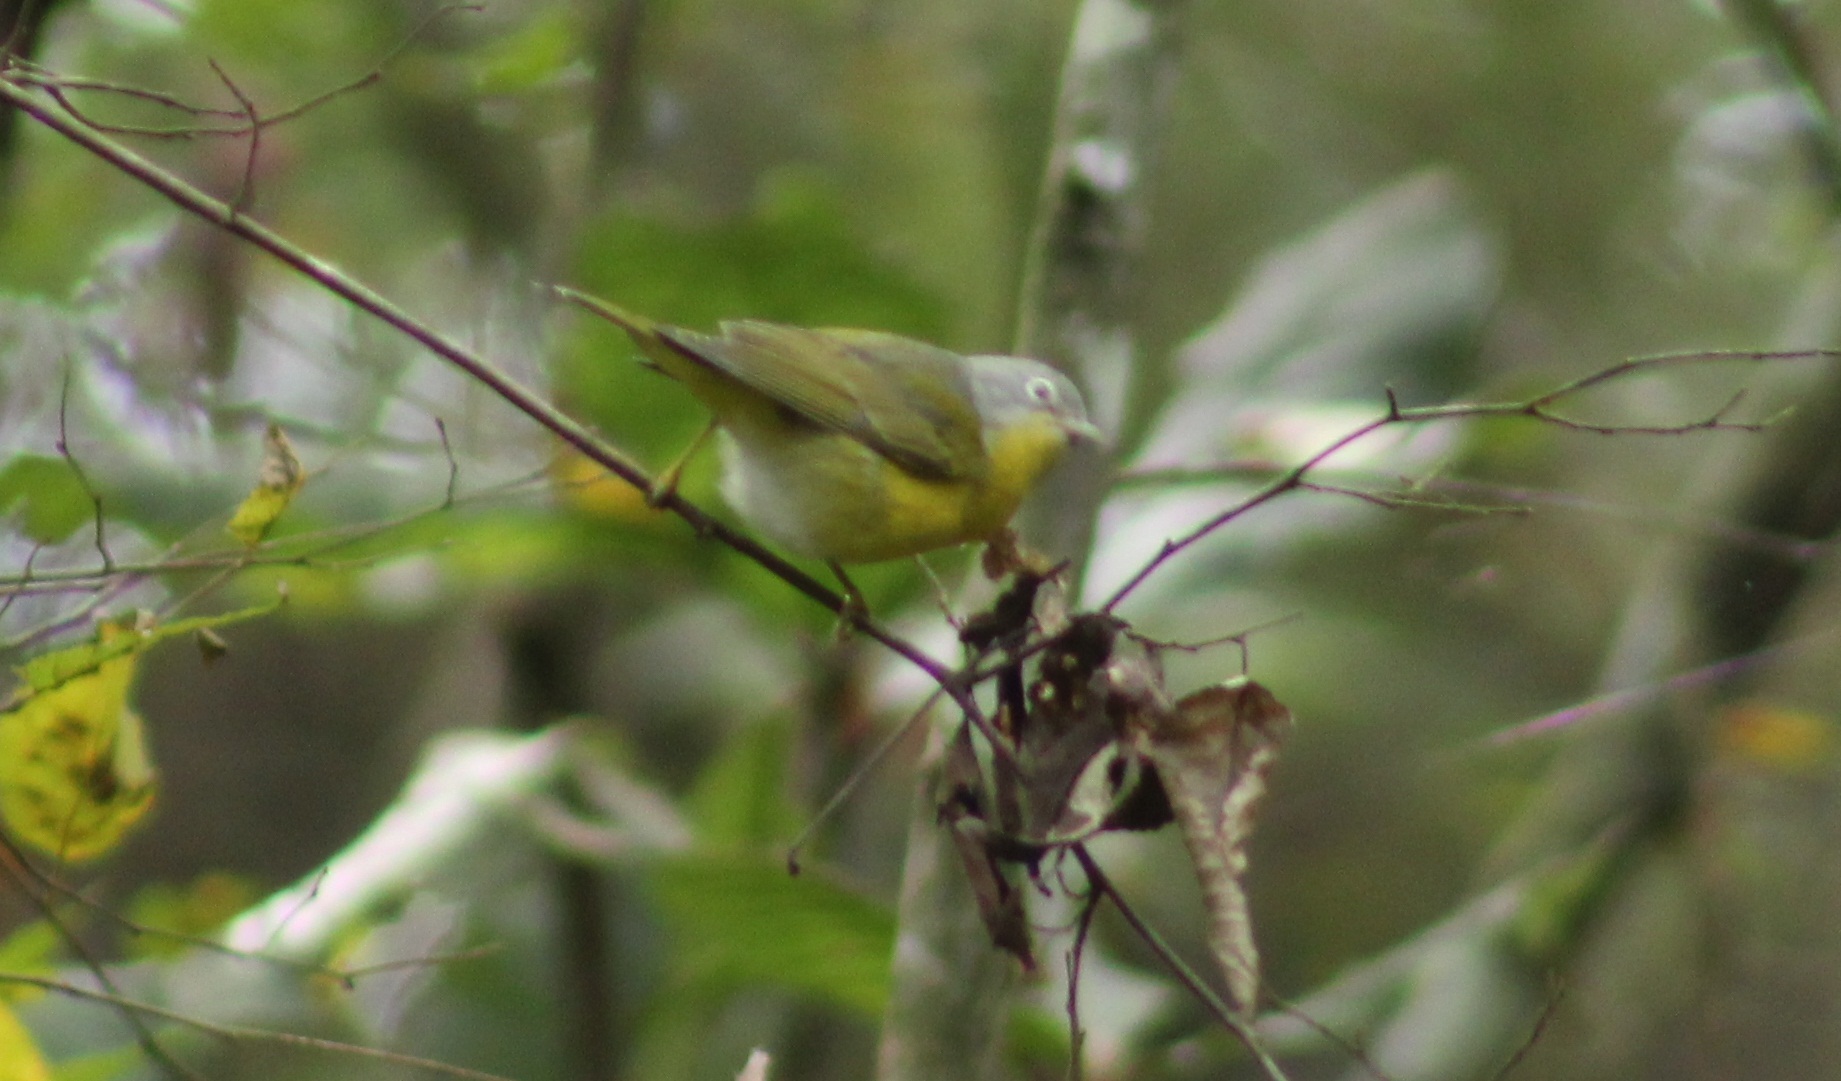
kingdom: Animalia
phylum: Chordata
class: Aves
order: Passeriformes
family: Parulidae
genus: Leiothlypis
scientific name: Leiothlypis ruficapilla
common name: Nashville warbler
